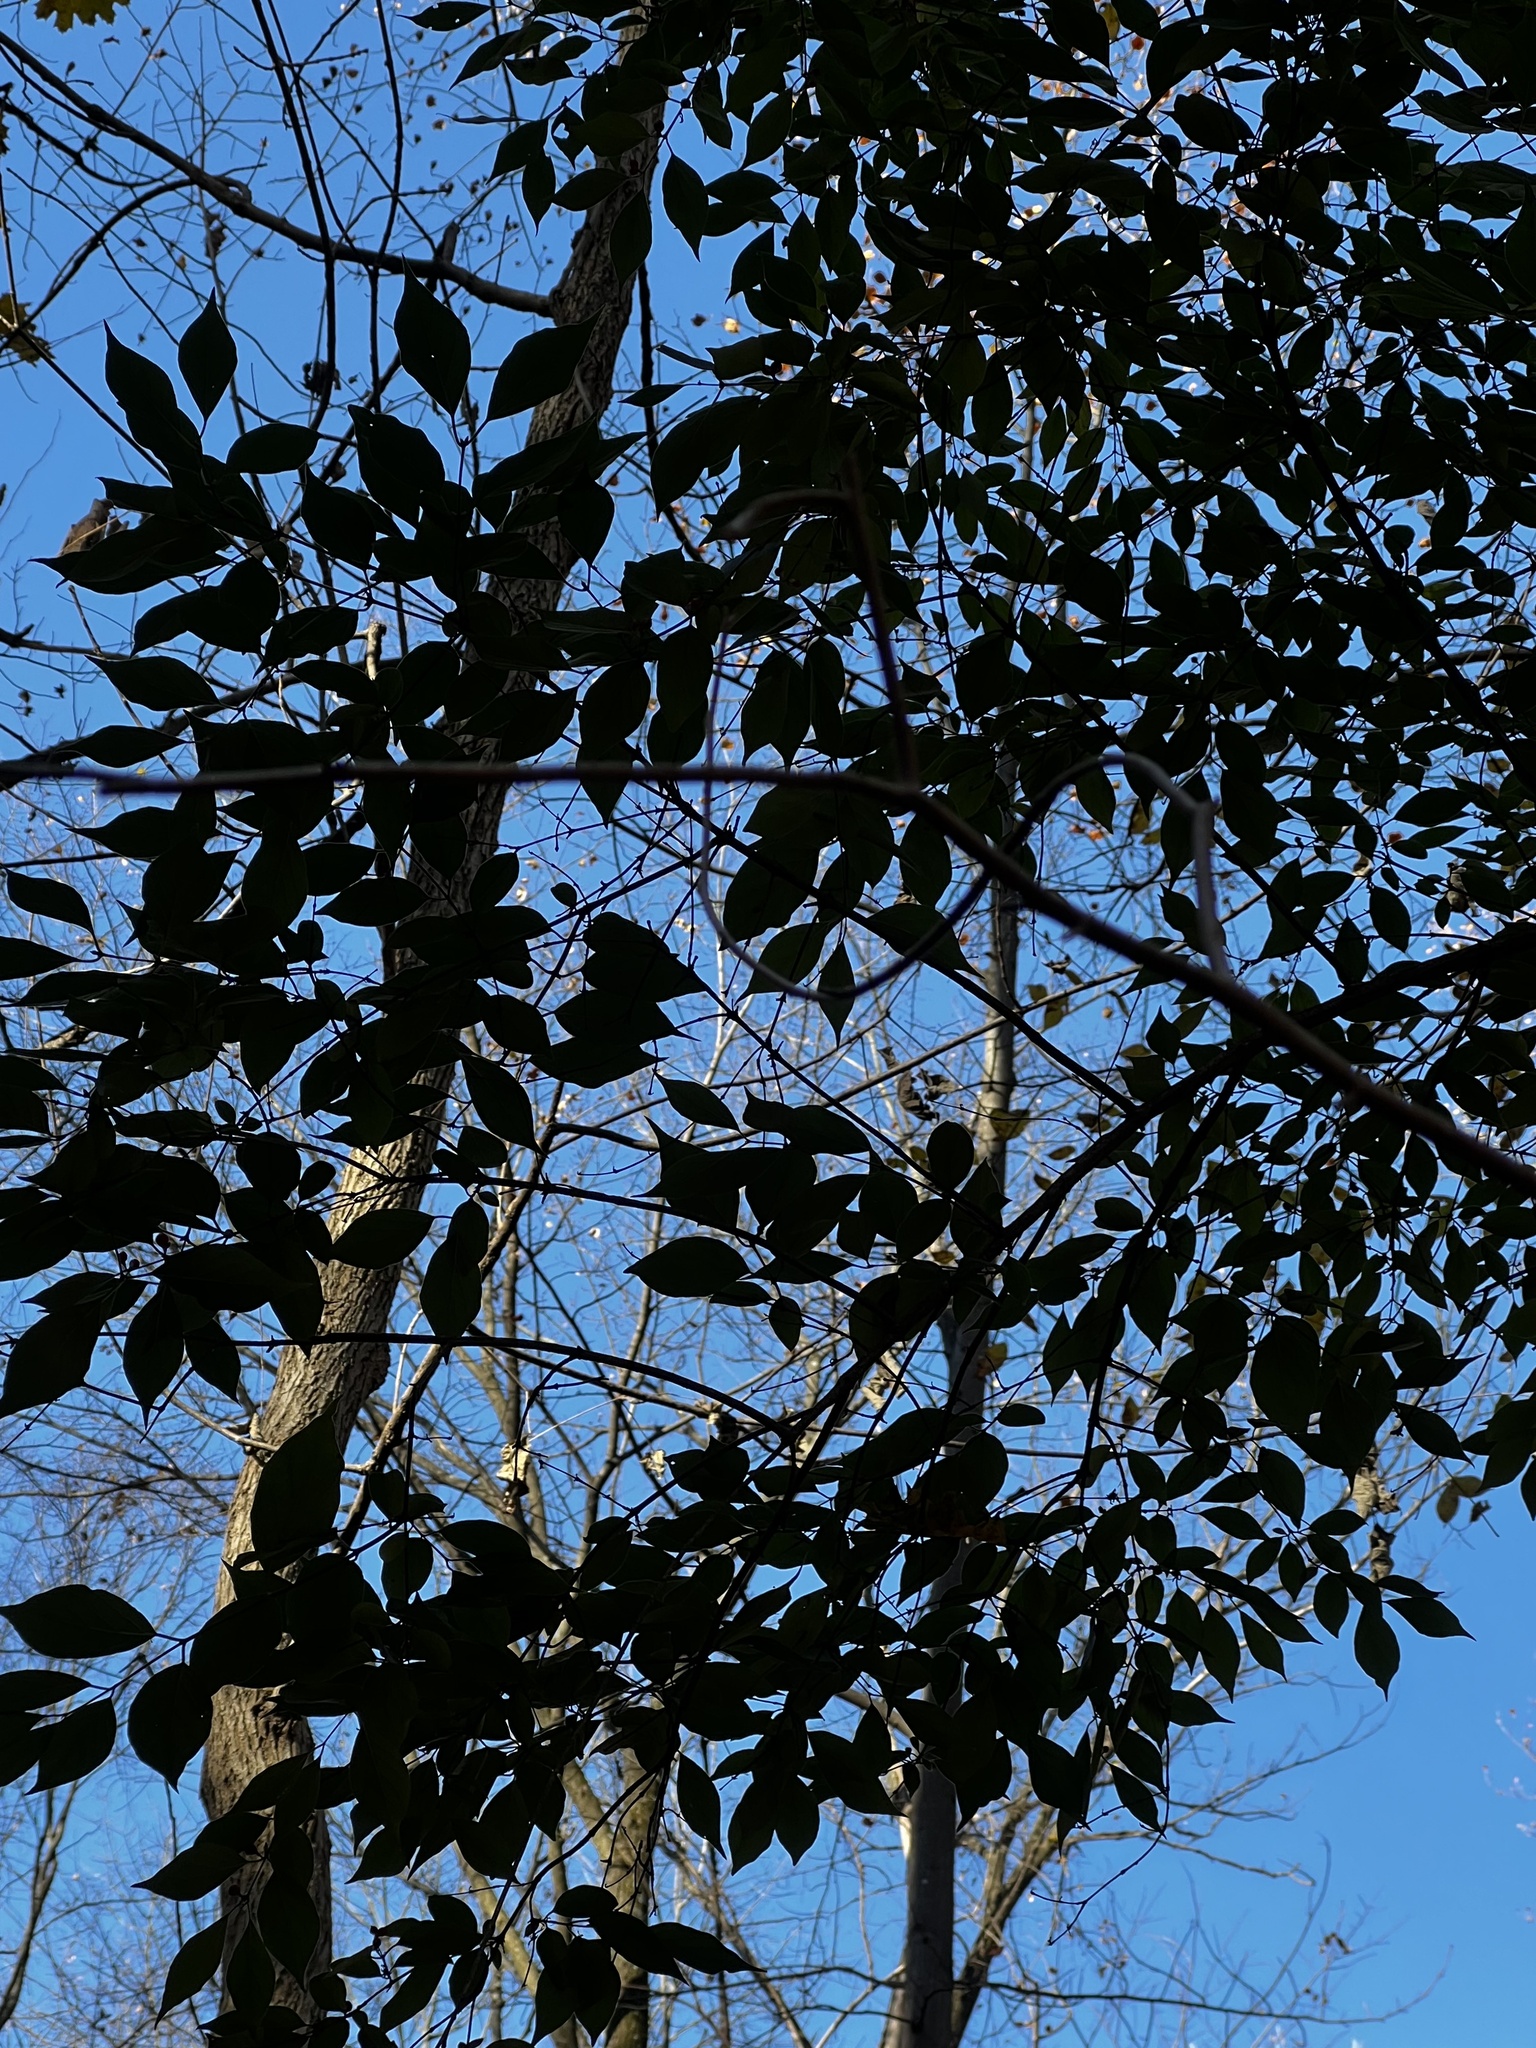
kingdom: Plantae
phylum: Tracheophyta
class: Magnoliopsida
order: Dipsacales
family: Caprifoliaceae
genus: Lonicera
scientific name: Lonicera maackii
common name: Amur honeysuckle
